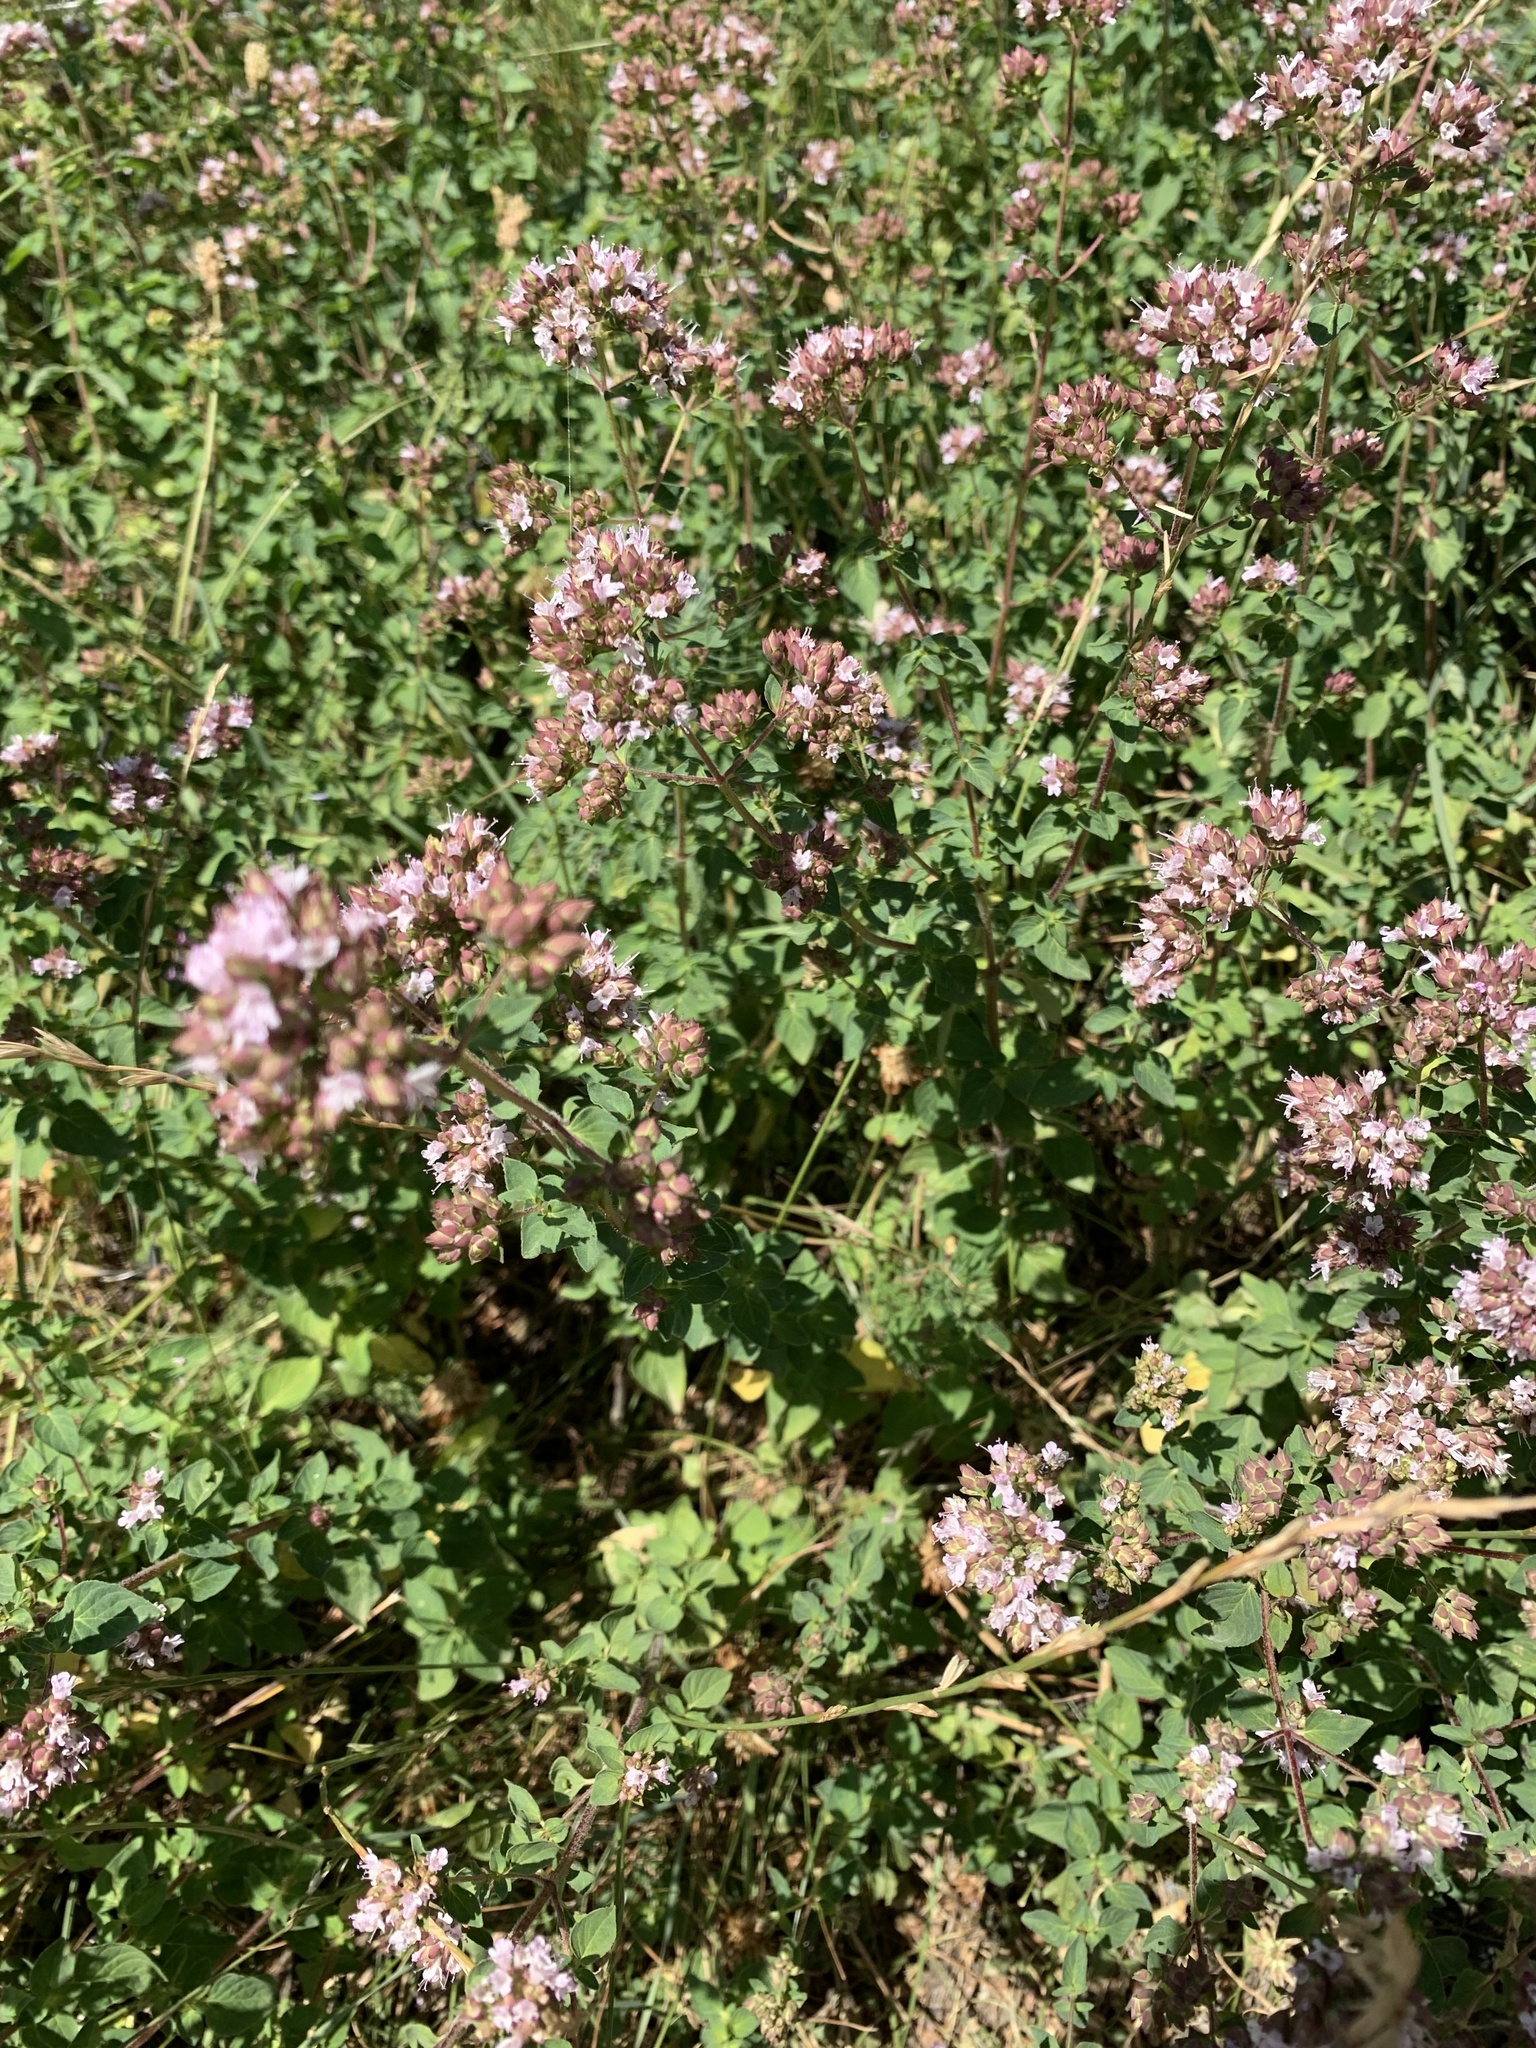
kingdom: Plantae
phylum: Tracheophyta
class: Magnoliopsida
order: Lamiales
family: Lamiaceae
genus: Origanum
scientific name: Origanum vulgare
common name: Wild marjoram
